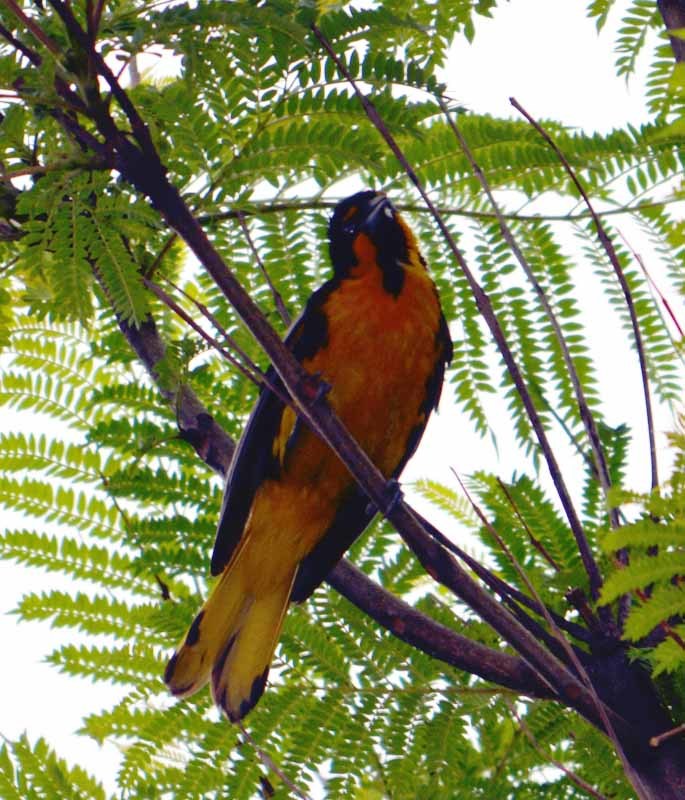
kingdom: Animalia
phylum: Chordata
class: Aves
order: Passeriformes
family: Icteridae
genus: Icterus
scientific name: Icterus abeillei
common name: Black-backed oriole
